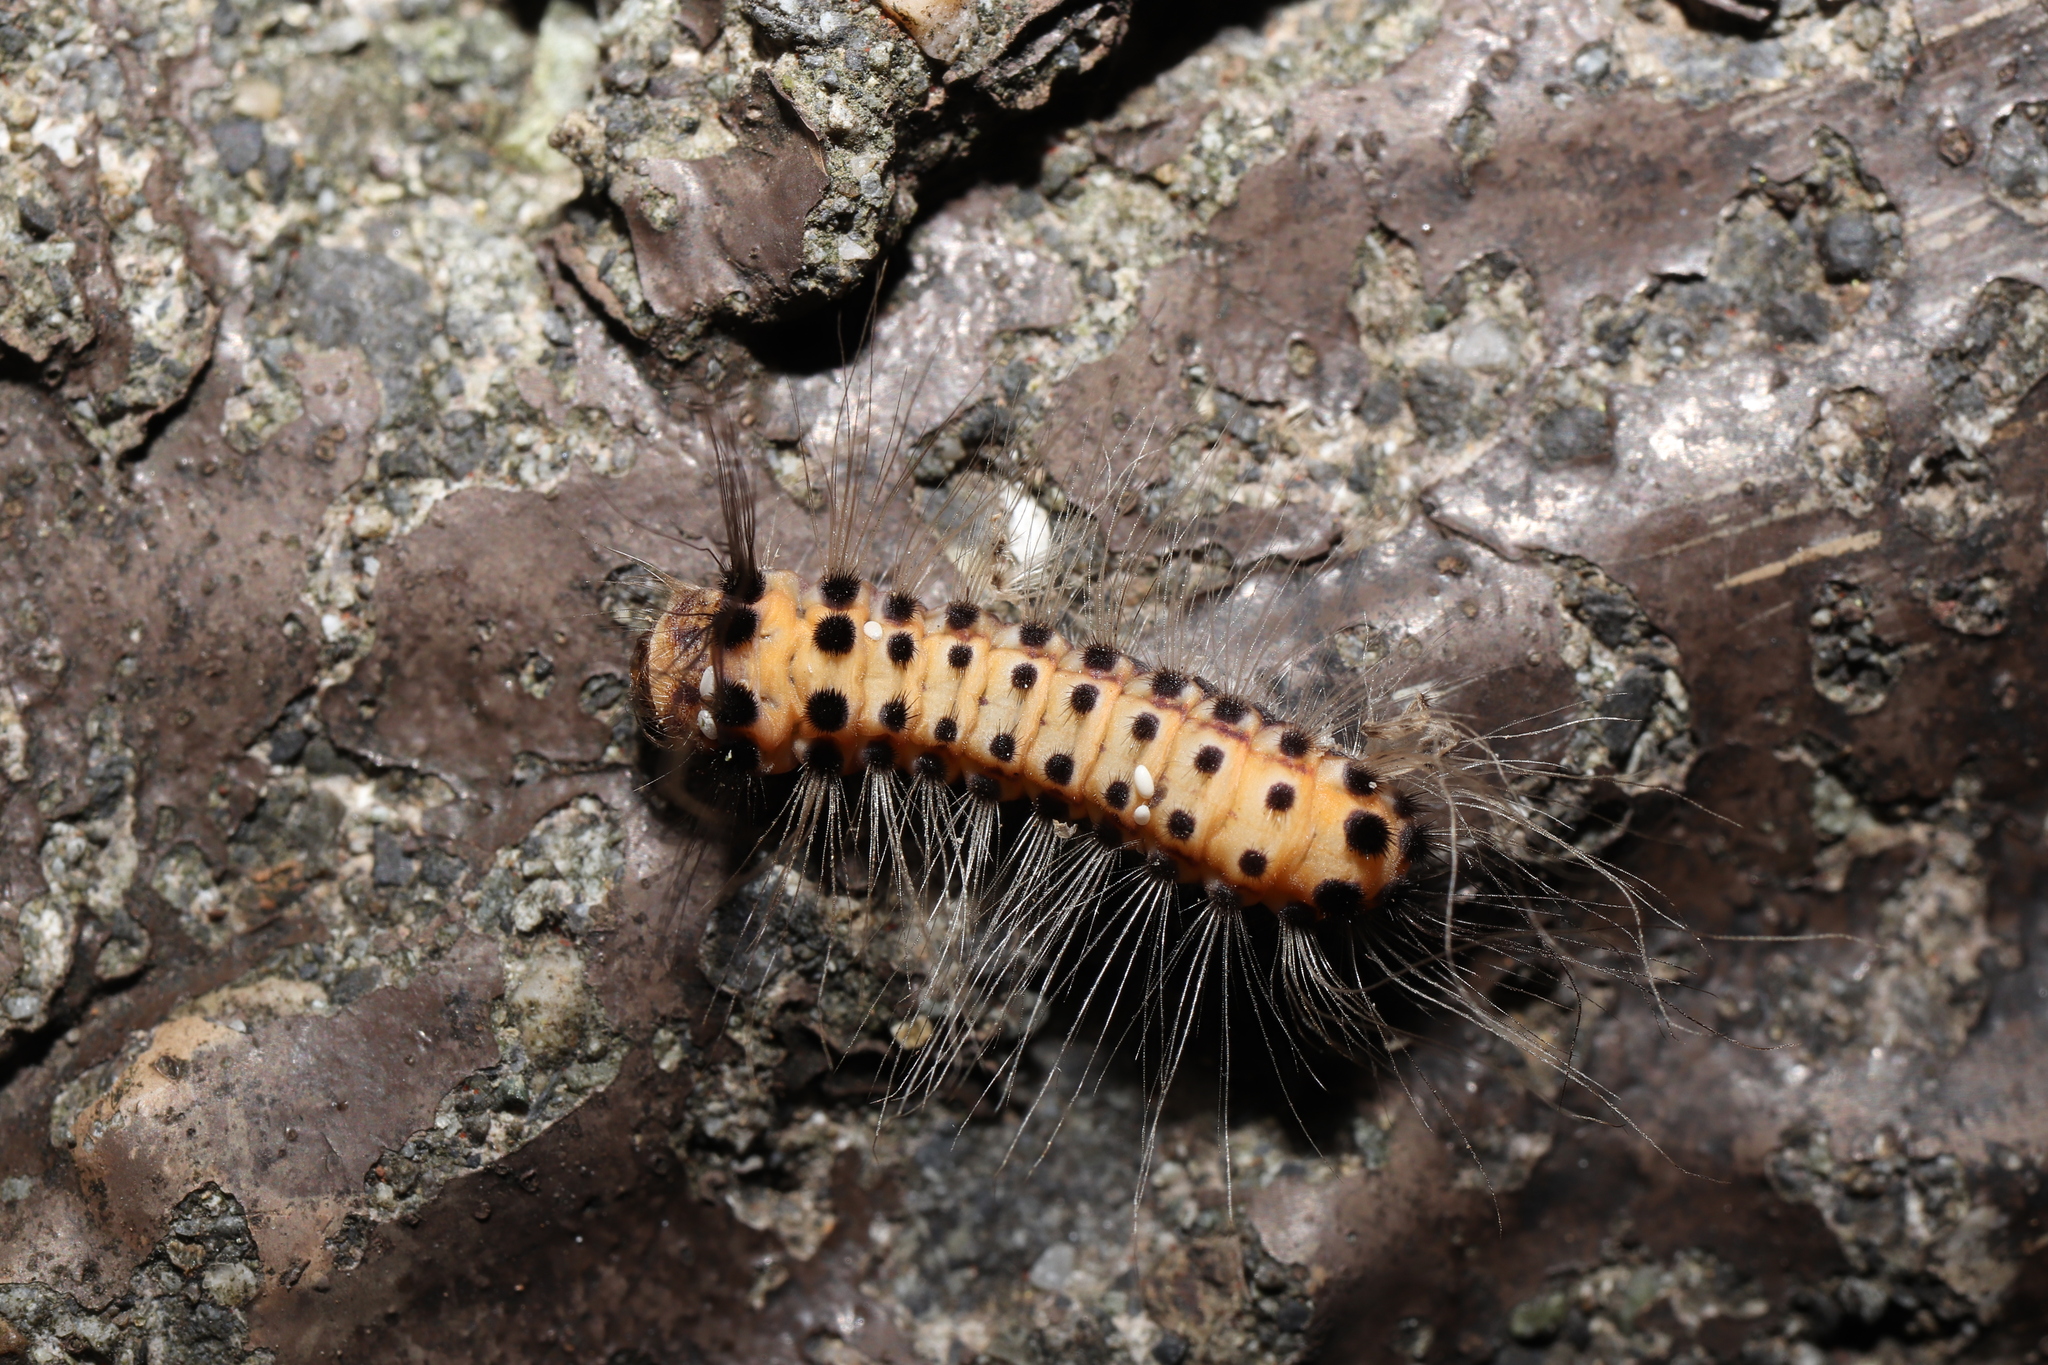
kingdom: Animalia
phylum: Arthropoda
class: Insecta
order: Lepidoptera
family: Zygaenidae
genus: Artona
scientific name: Artona martini
